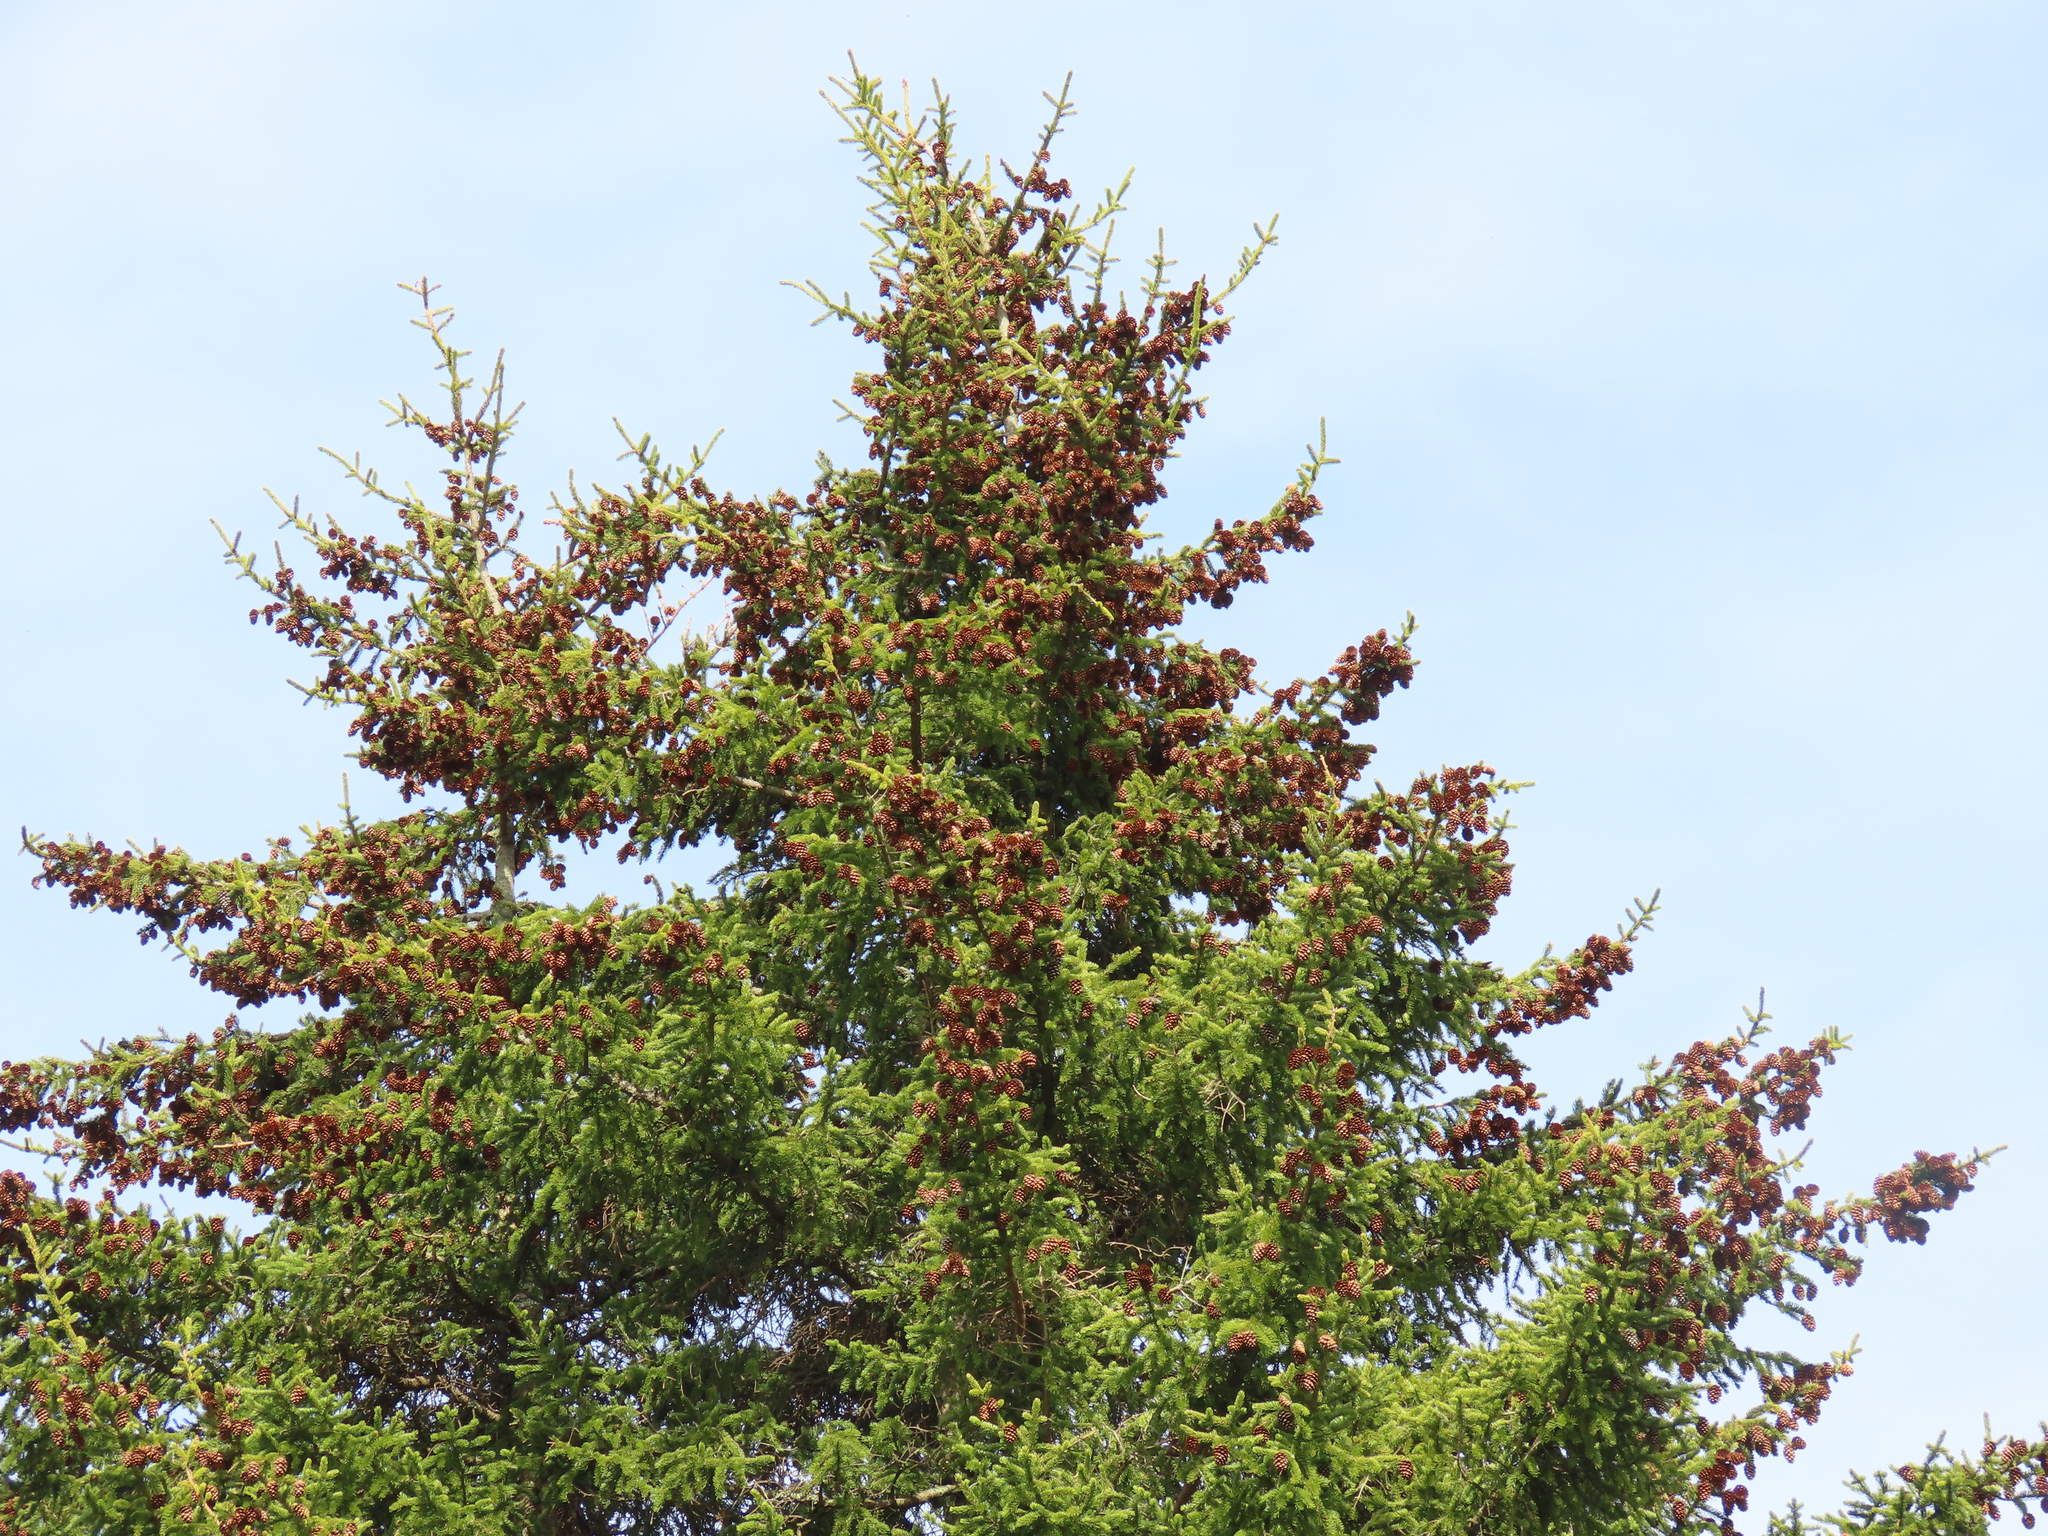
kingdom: Plantae
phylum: Tracheophyta
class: Pinopsida
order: Pinales
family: Pinaceae
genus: Picea
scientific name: Picea rubens
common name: Red spruce
